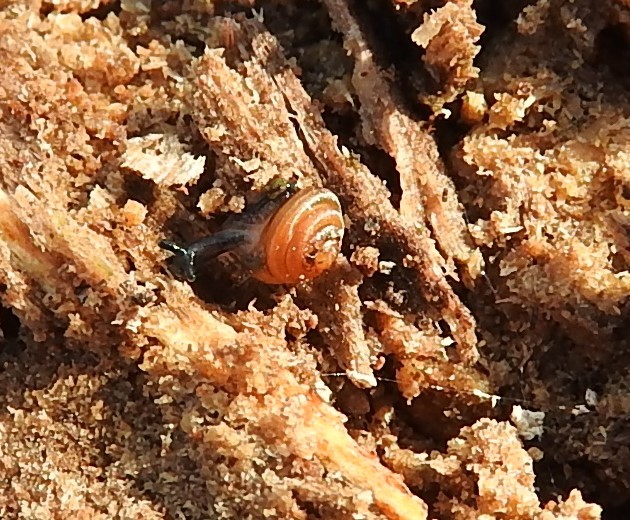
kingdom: Animalia
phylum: Mollusca
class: Gastropoda
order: Stylommatophora
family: Euconulidae
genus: Euconulus
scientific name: Euconulus fulvus
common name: Tawny glass snail
